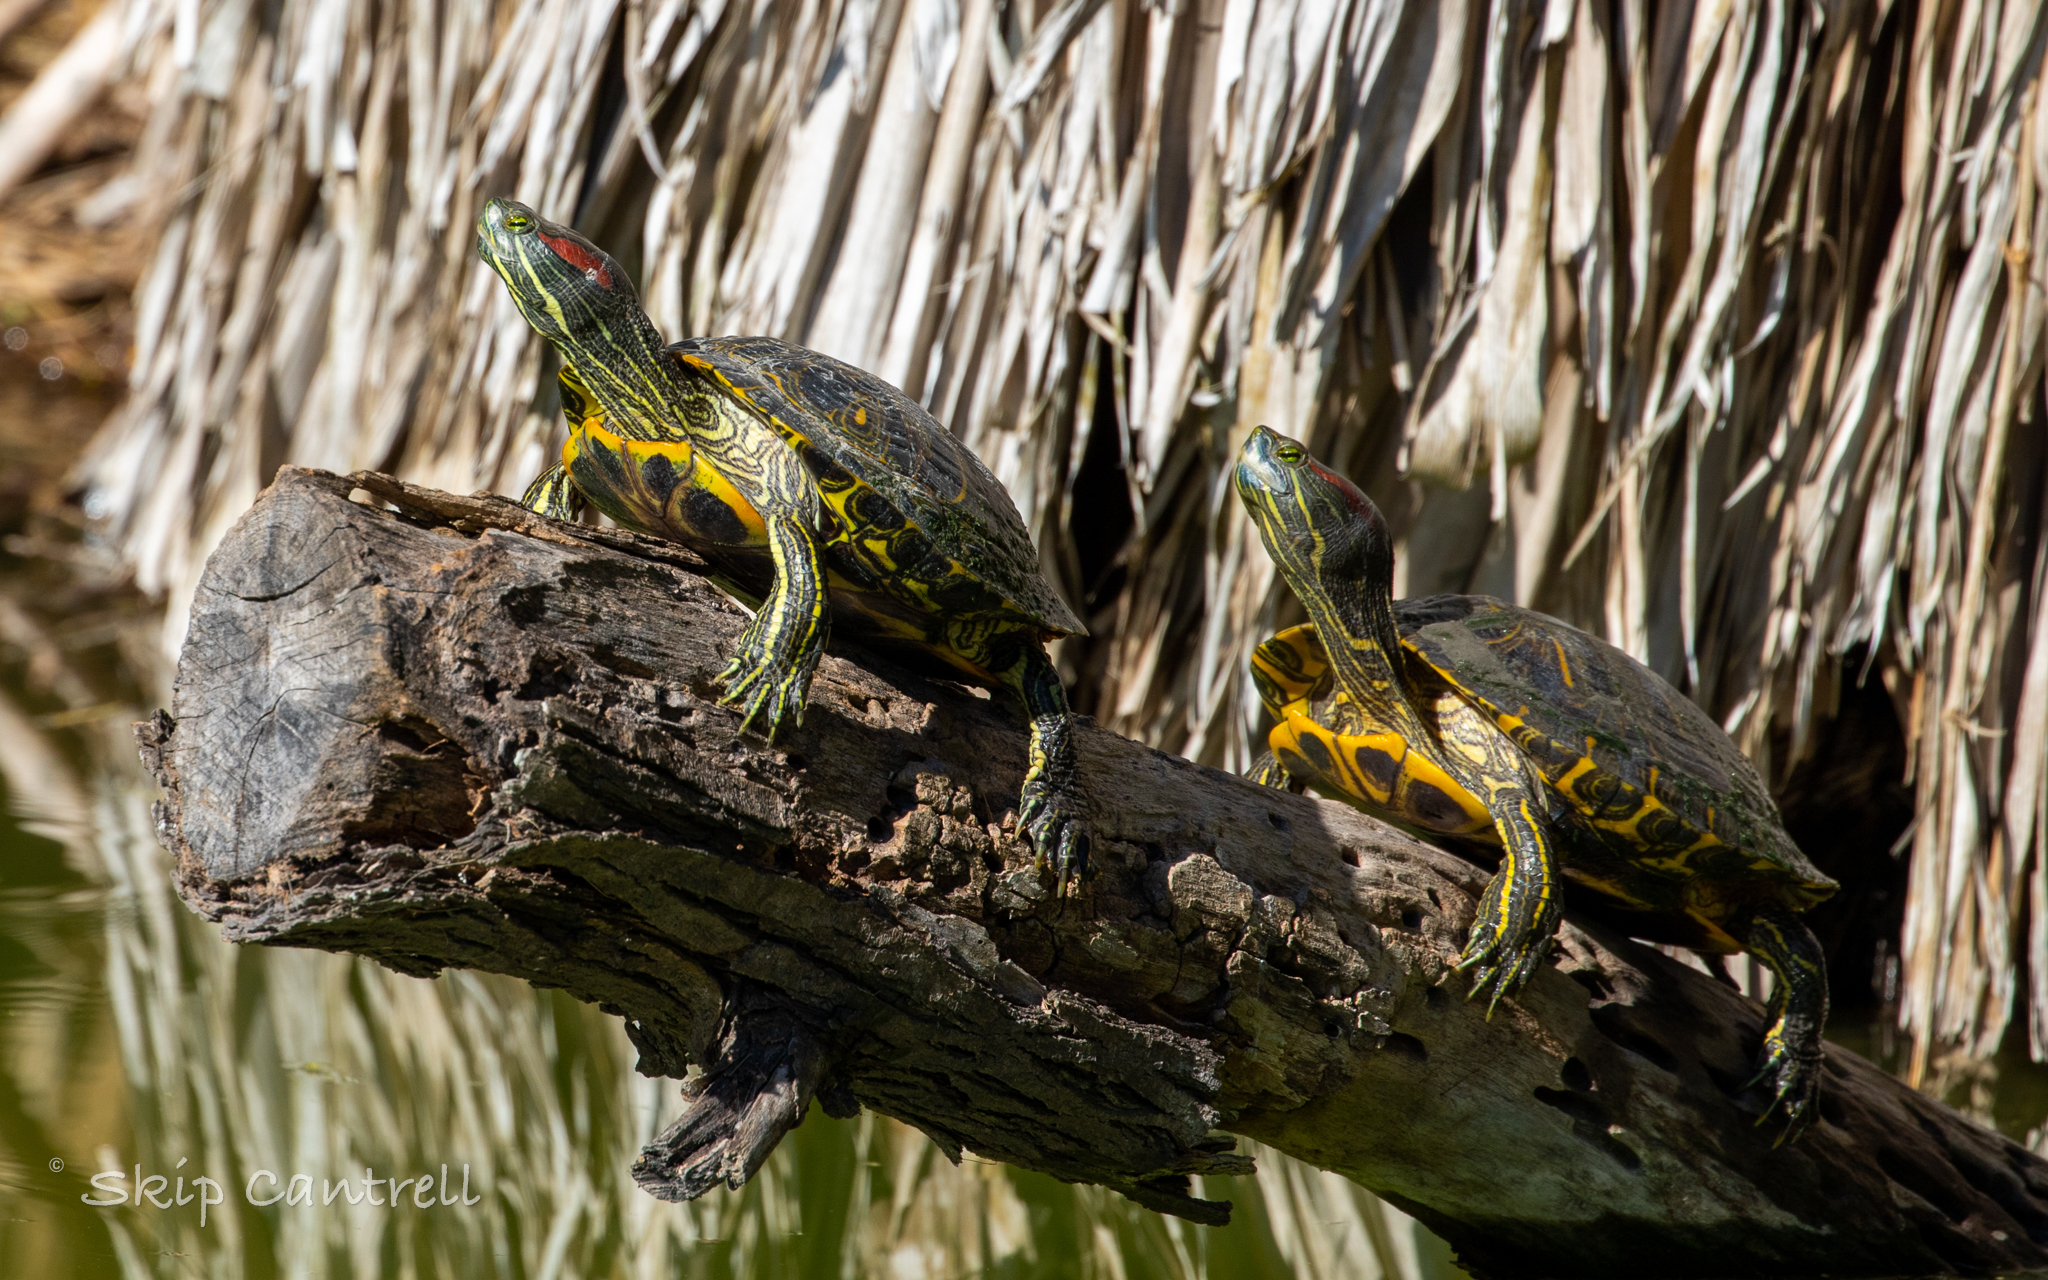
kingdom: Animalia
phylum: Chordata
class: Testudines
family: Emydidae
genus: Trachemys
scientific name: Trachemys scripta
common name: Slider
